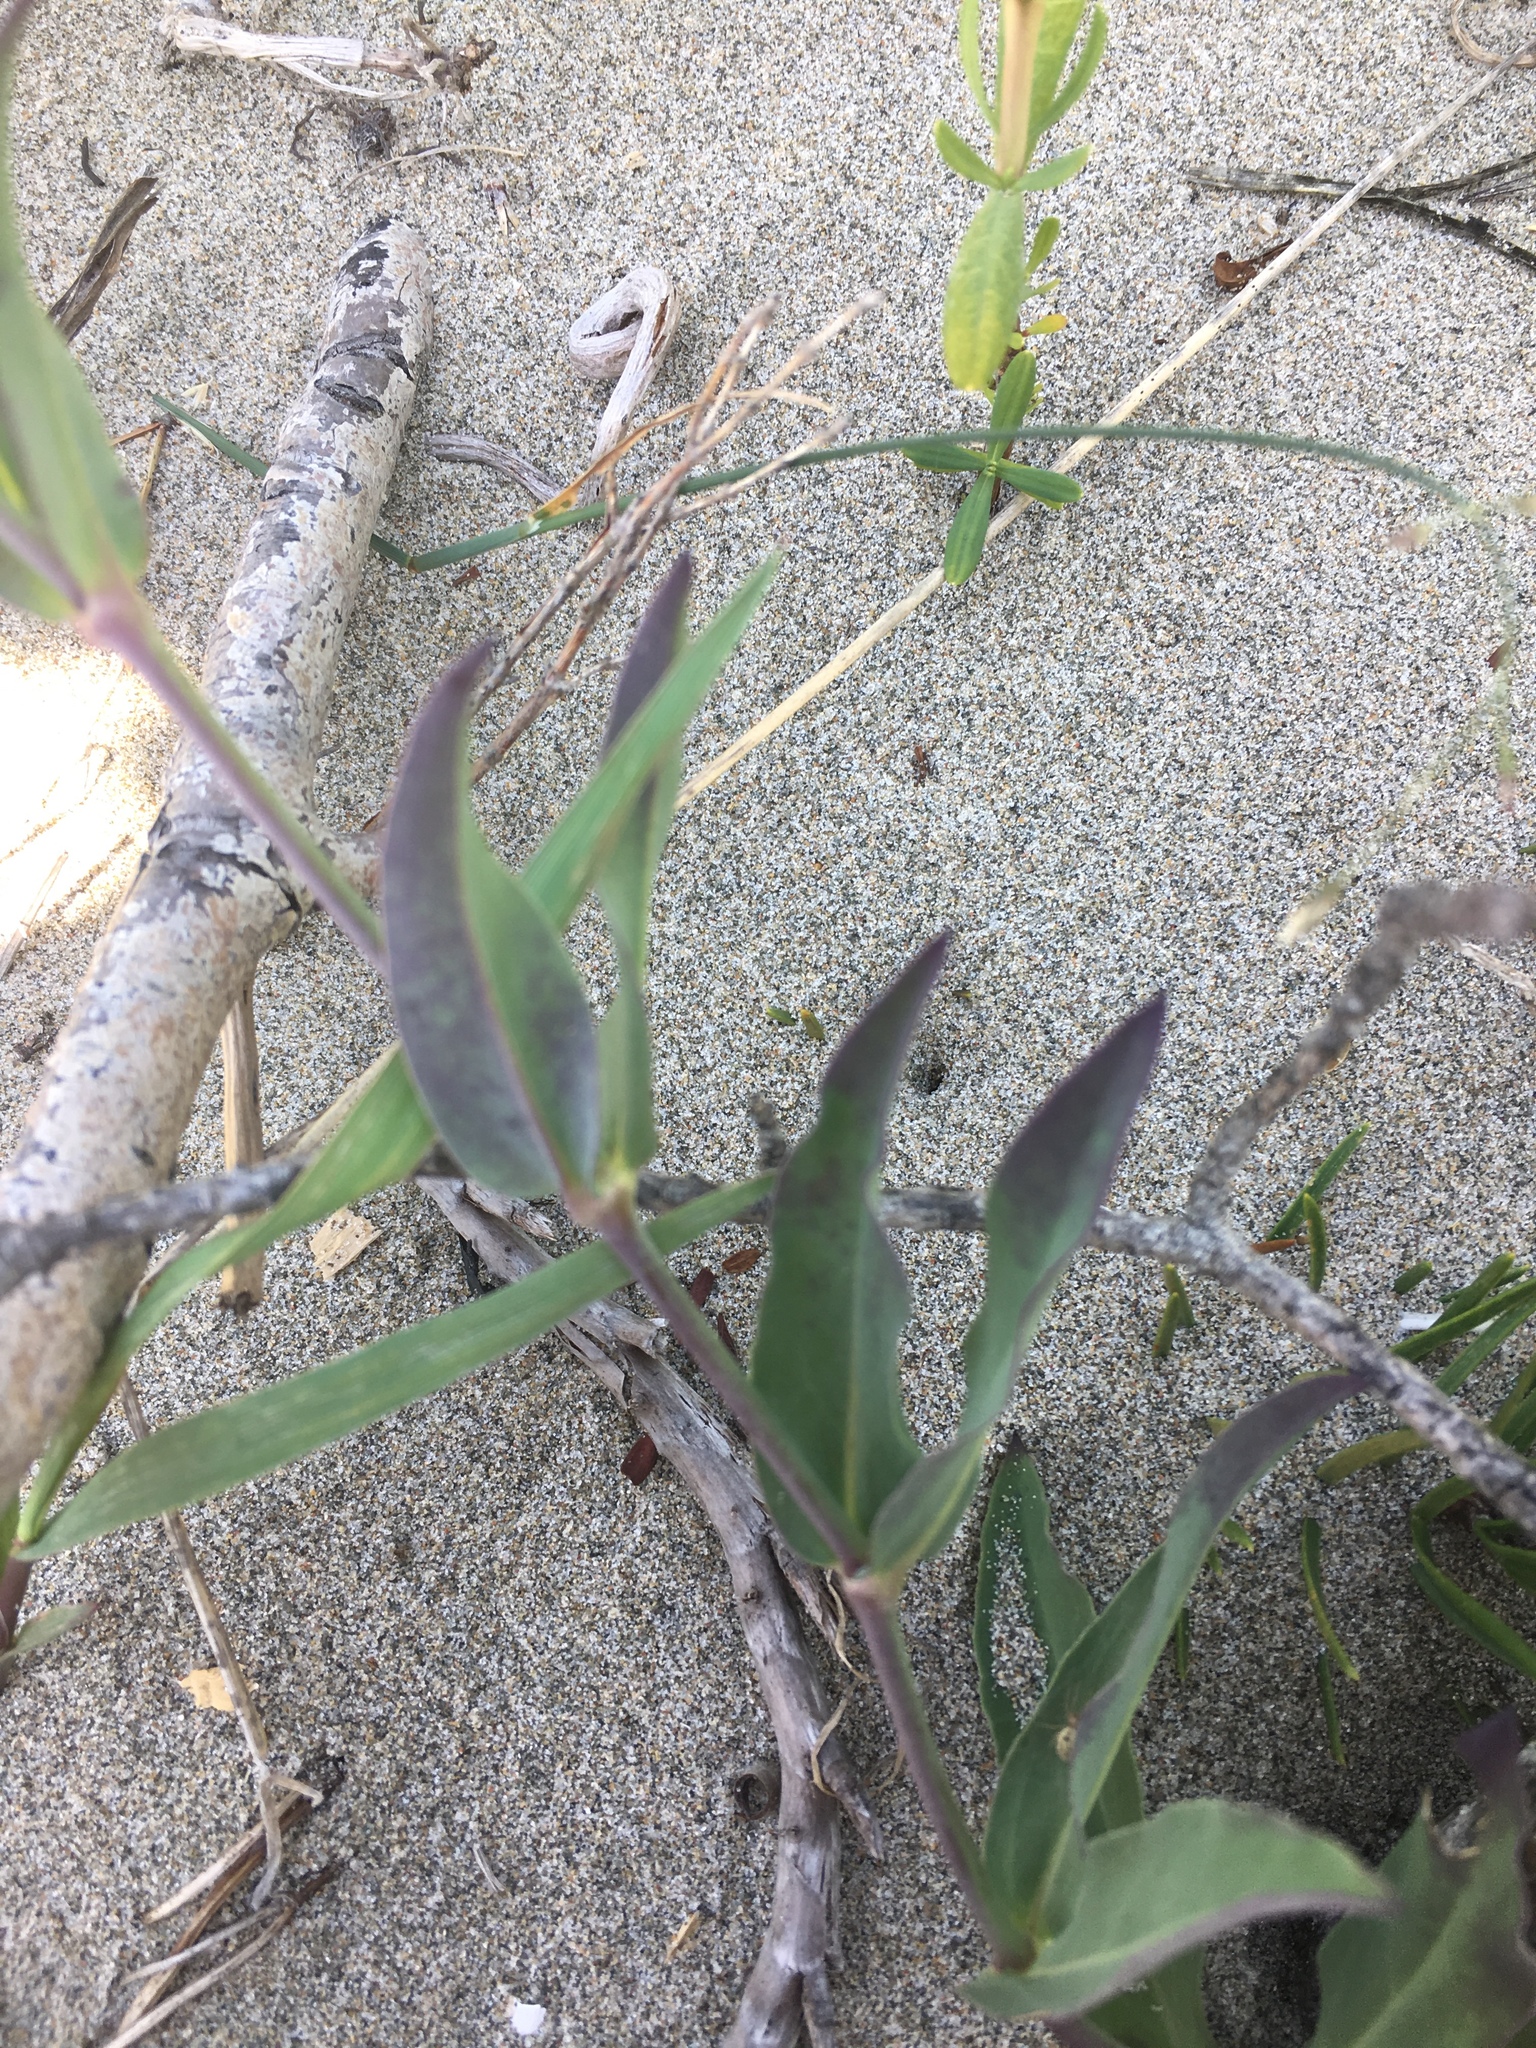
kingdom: Plantae
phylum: Tracheophyta
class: Magnoliopsida
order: Caryophyllales
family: Caryophyllaceae
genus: Silene
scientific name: Silene vulgaris
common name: Bladder campion
